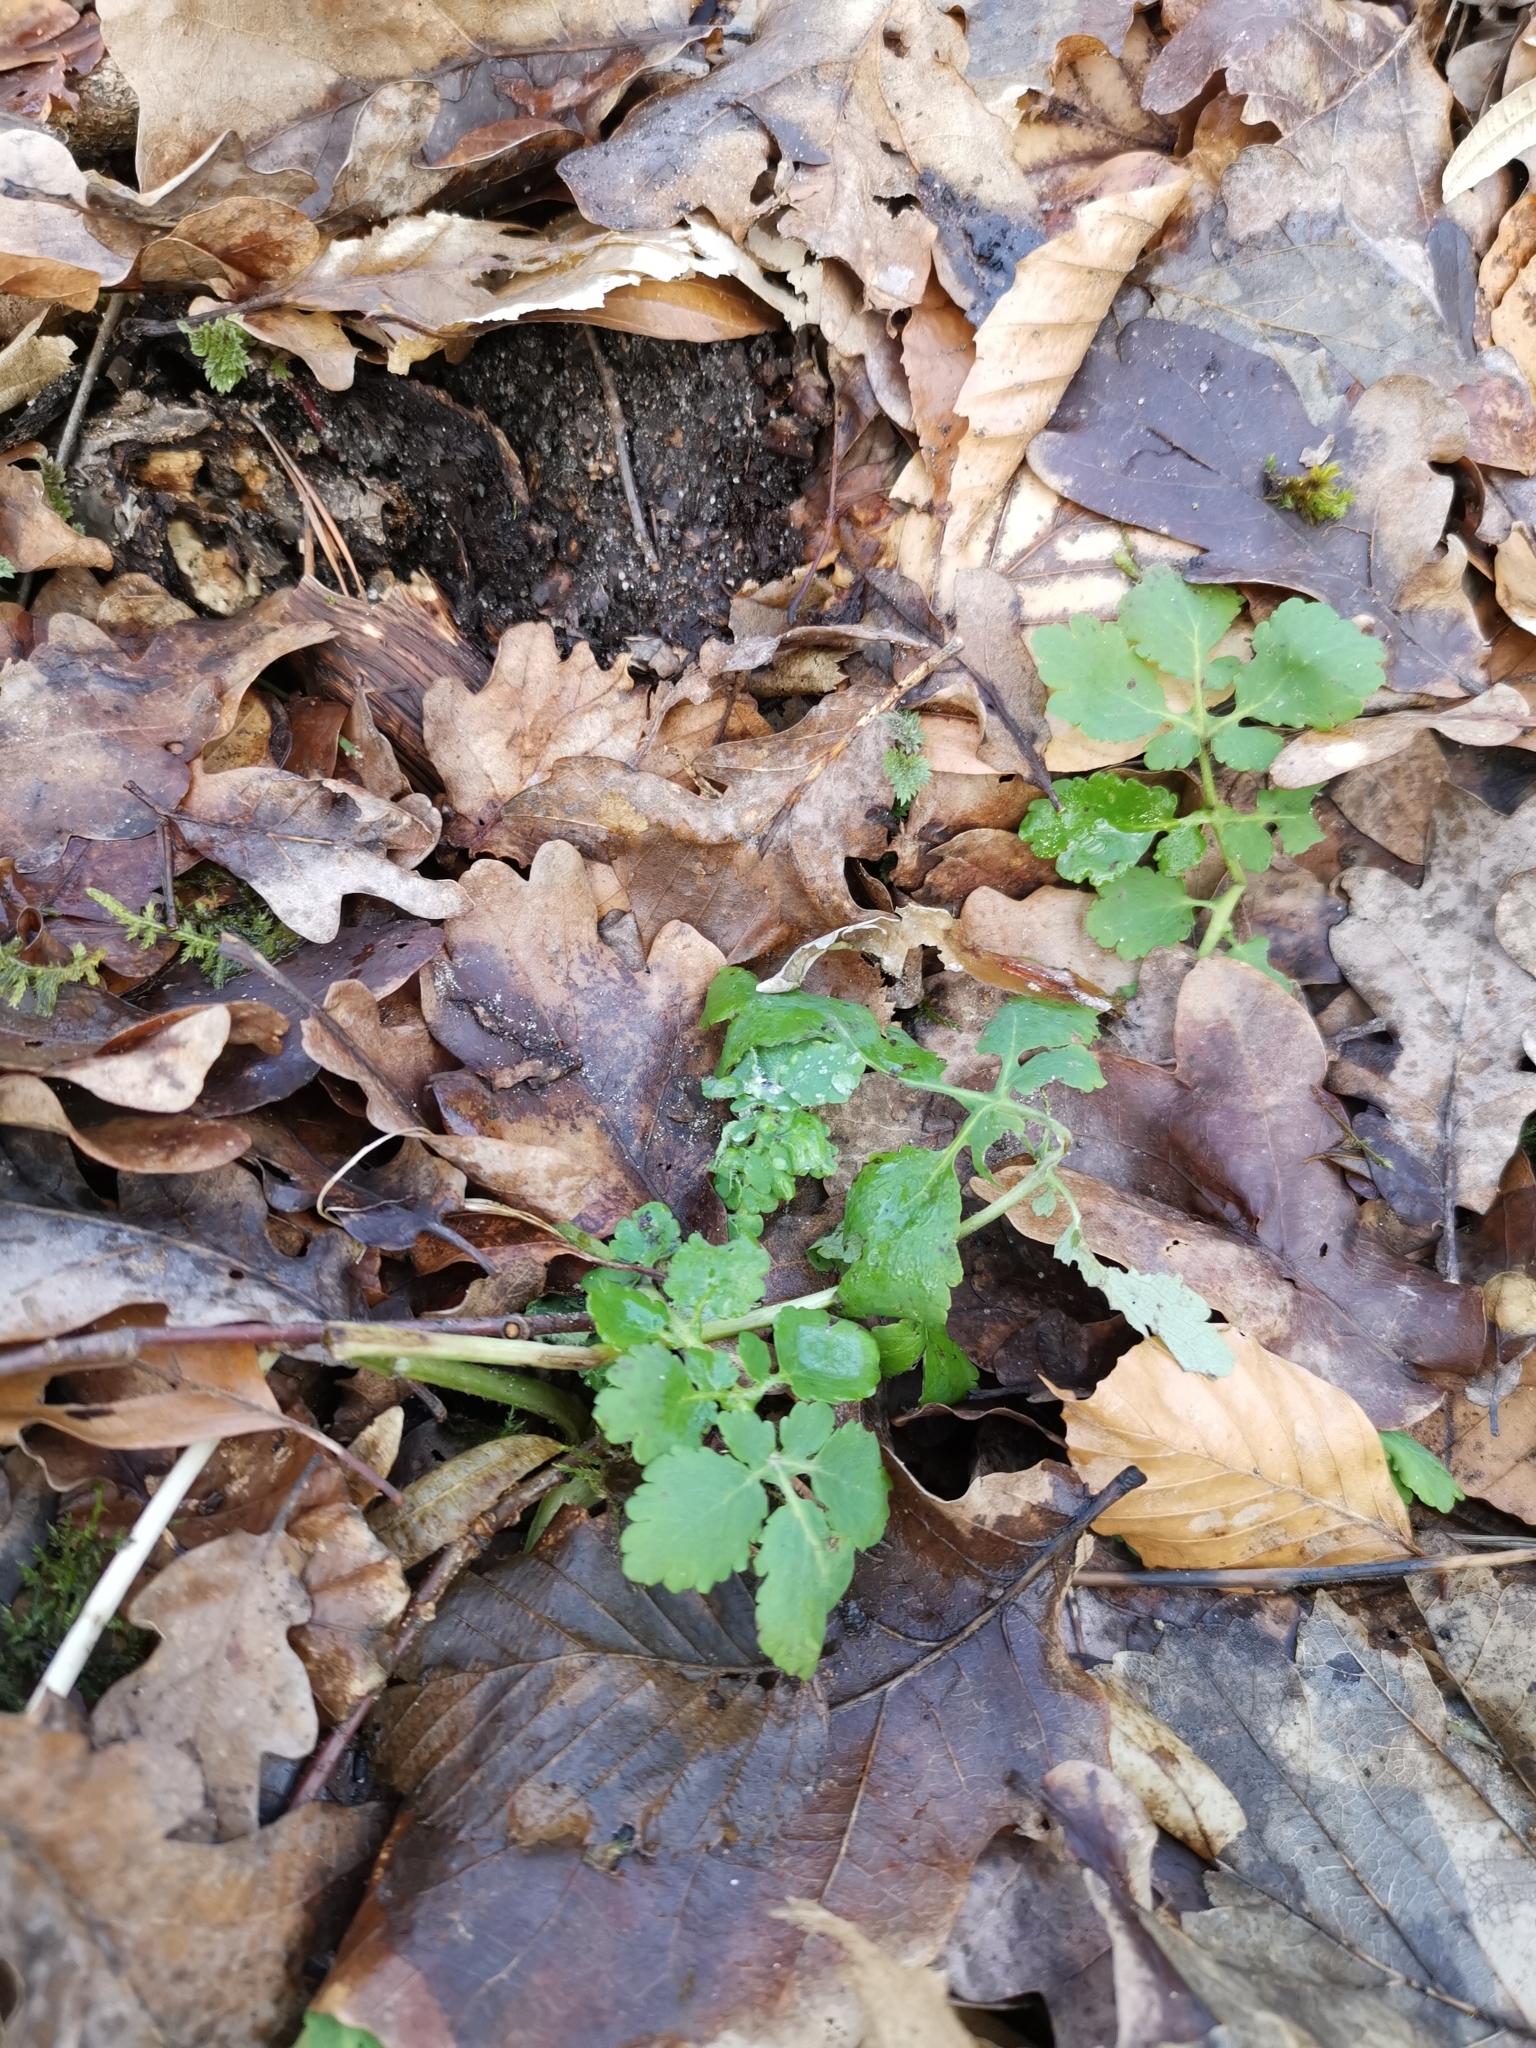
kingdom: Plantae
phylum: Tracheophyta
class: Magnoliopsida
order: Ranunculales
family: Papaveraceae
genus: Chelidonium
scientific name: Chelidonium majus
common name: Greater celandine
